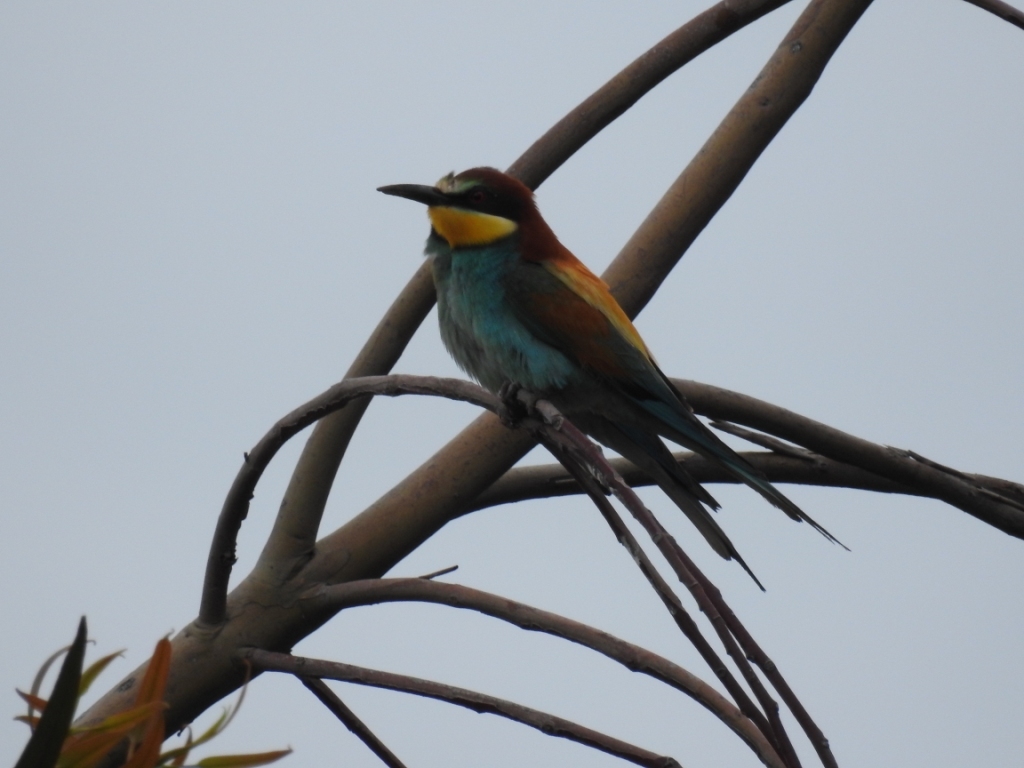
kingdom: Animalia
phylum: Chordata
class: Aves
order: Coraciiformes
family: Meropidae
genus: Merops
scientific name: Merops apiaster
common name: European bee-eater
